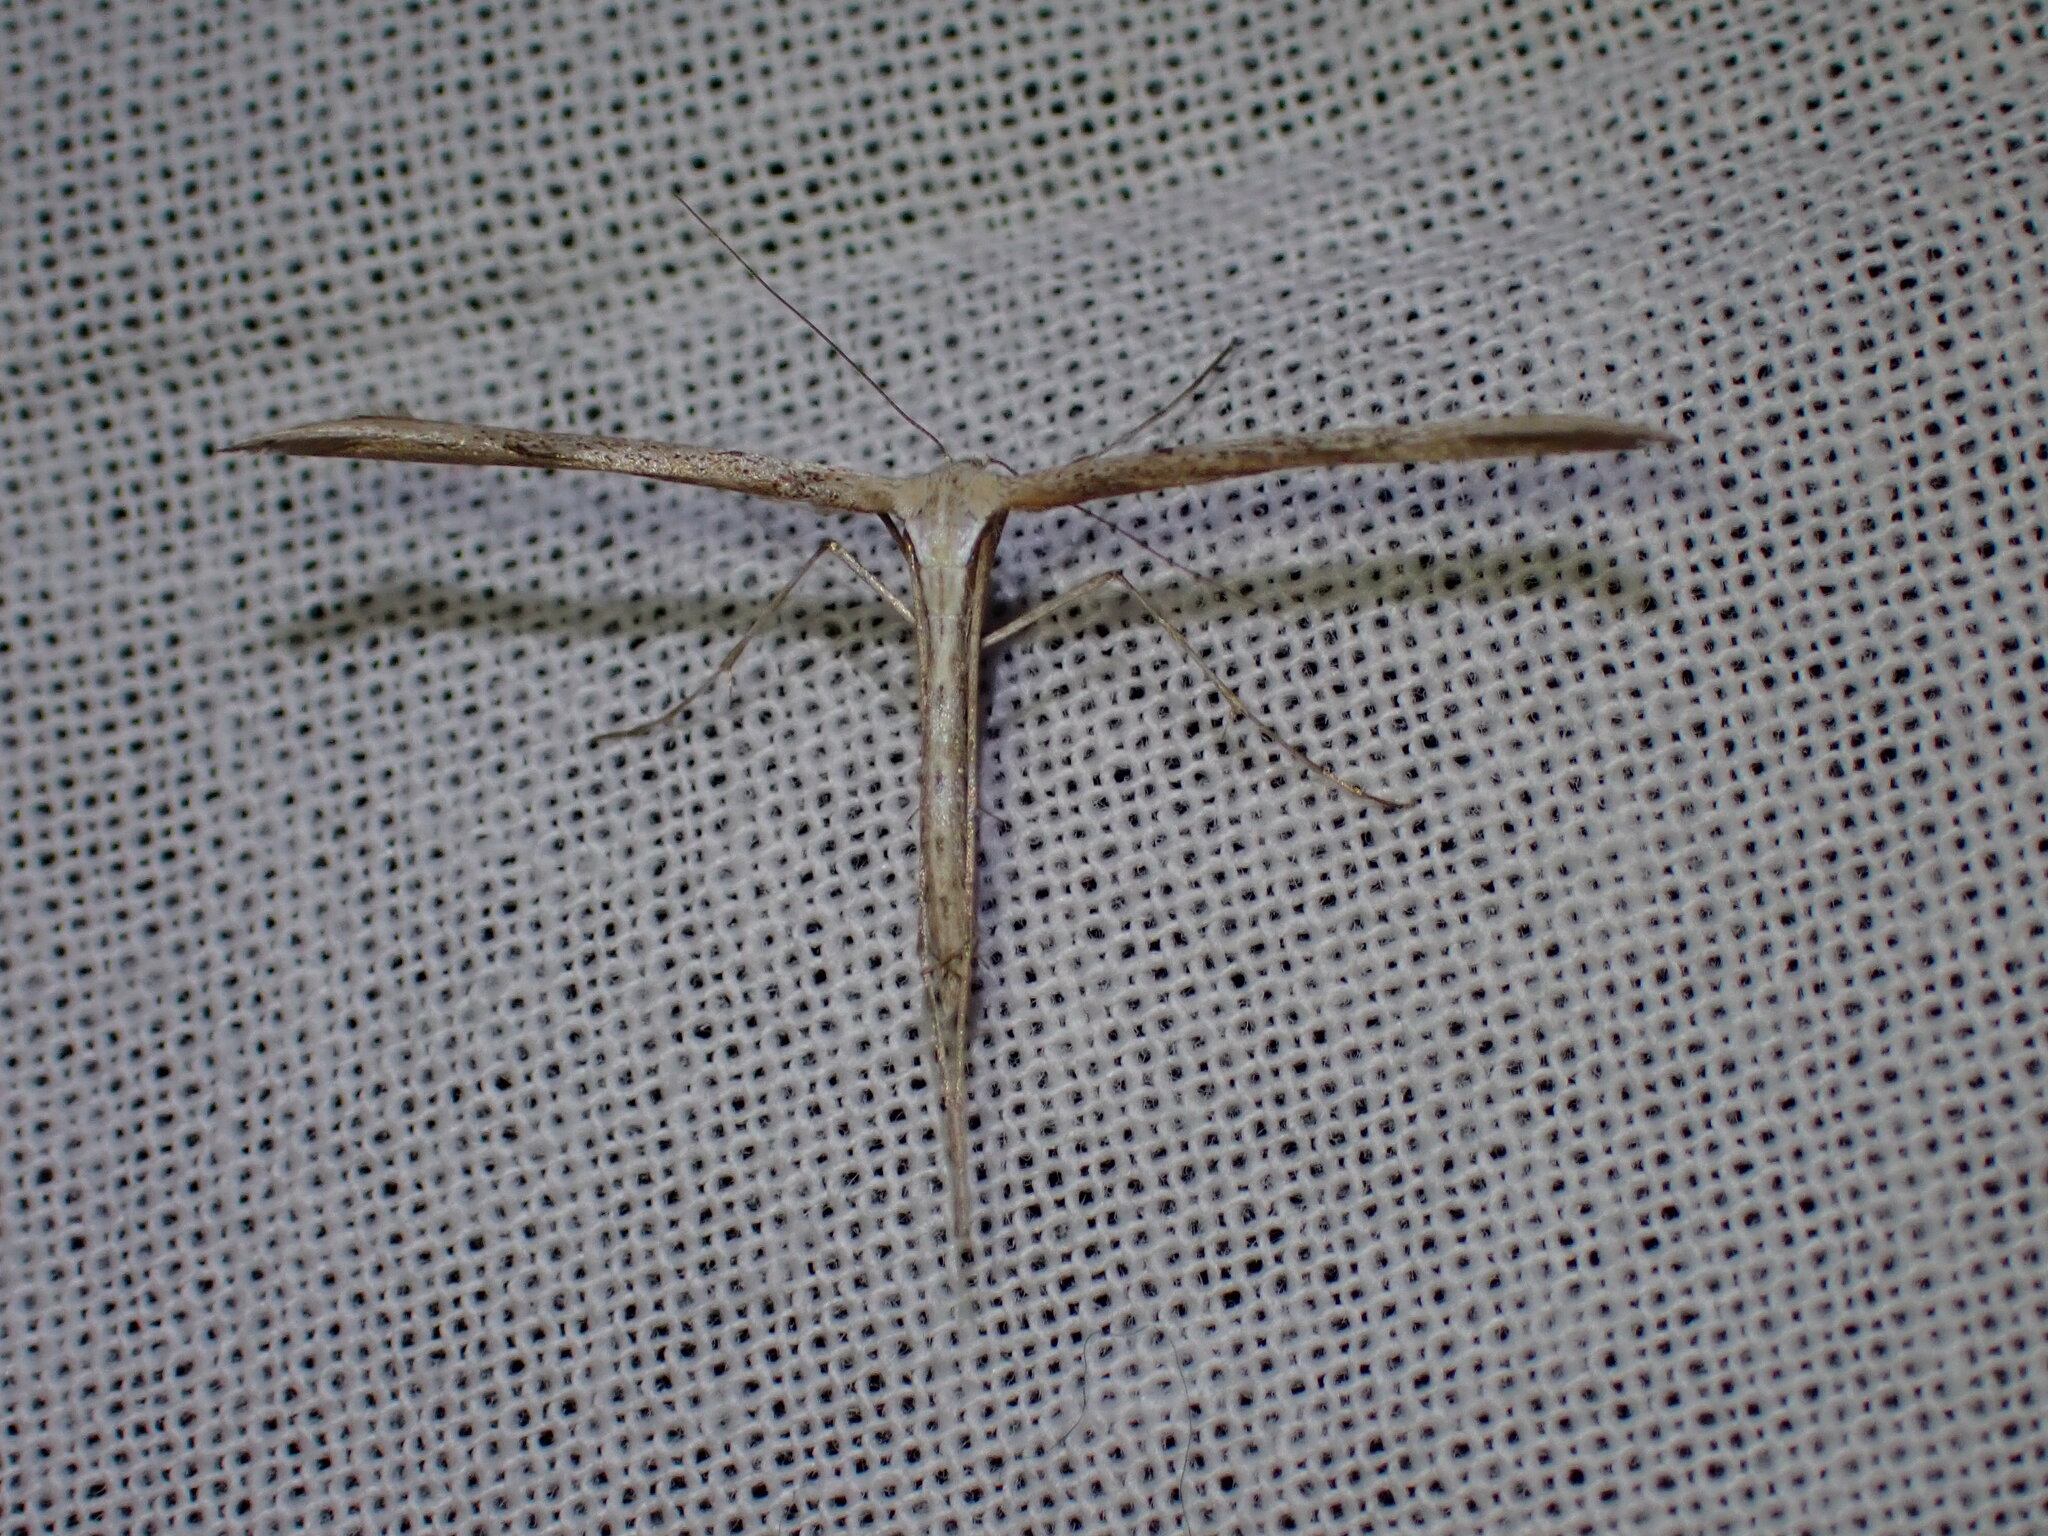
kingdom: Animalia
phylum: Arthropoda
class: Insecta
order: Lepidoptera
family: Pterophoridae
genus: Emmelina
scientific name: Emmelina monodactyla
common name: Common plume
